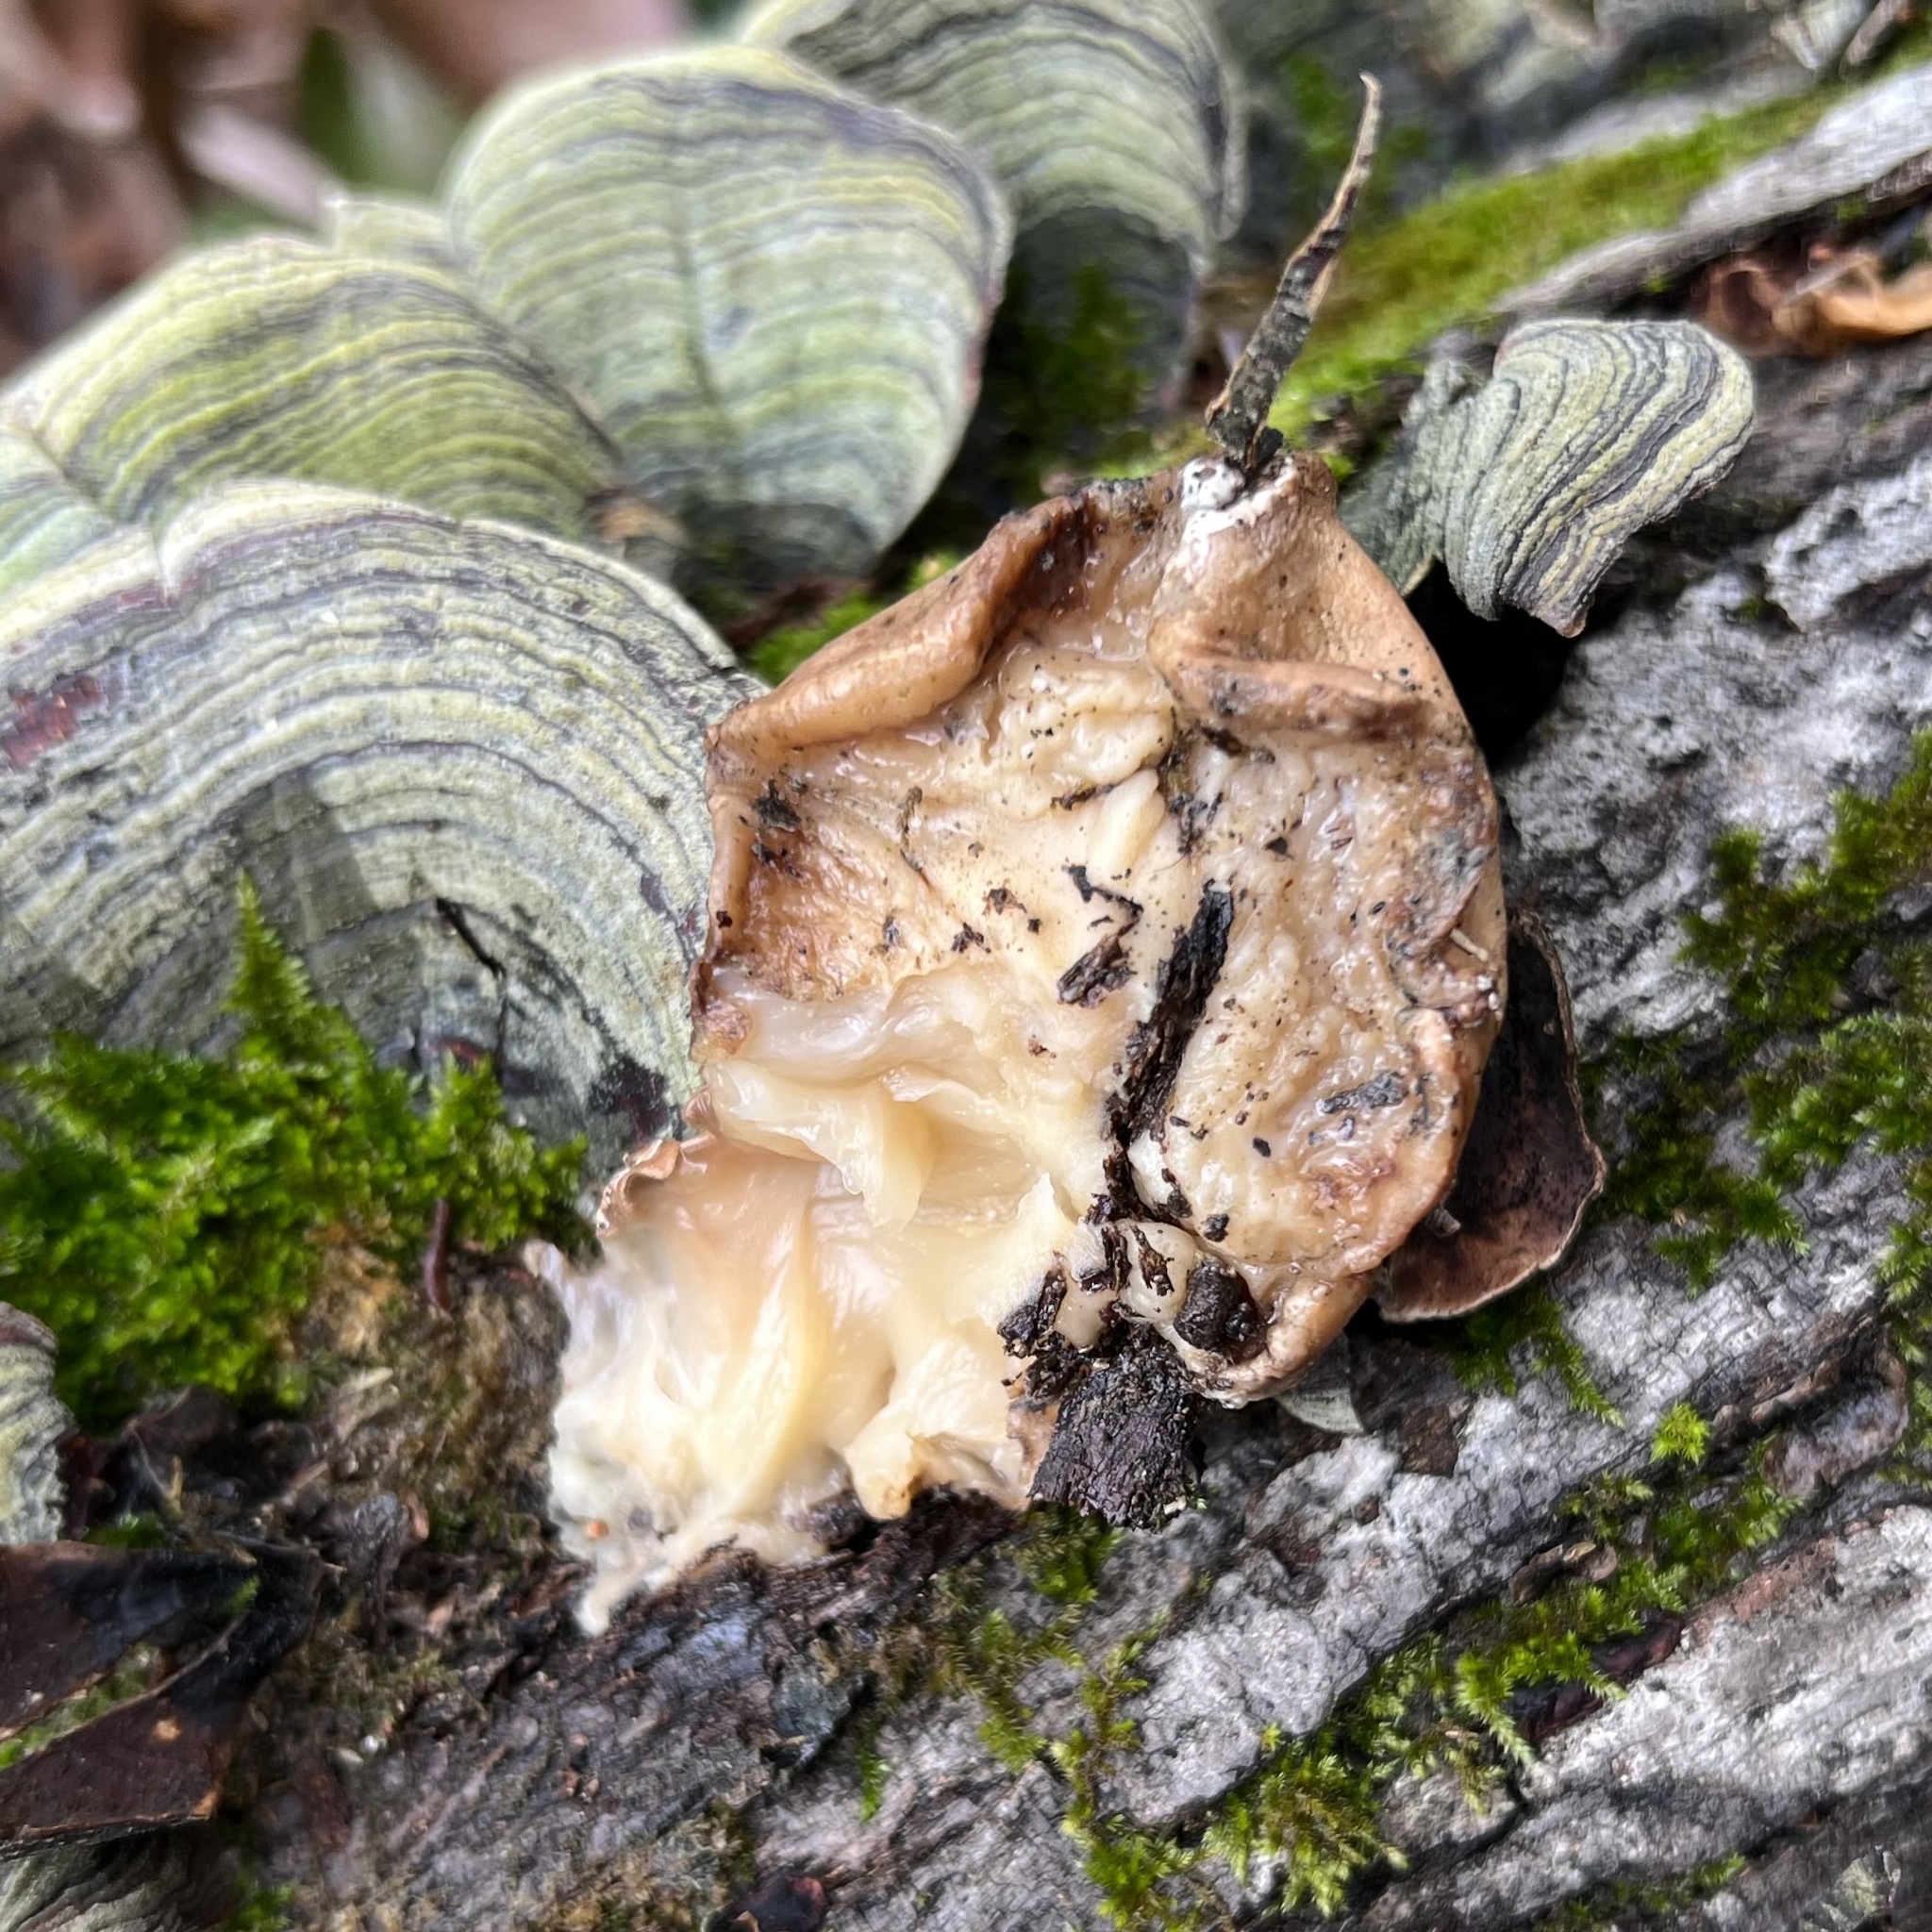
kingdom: Fungi
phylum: Ascomycota
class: Sordariomycetes
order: Hypocreales
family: Hypocreaceae
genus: Trichoderma
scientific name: Trichoderma peltatum
